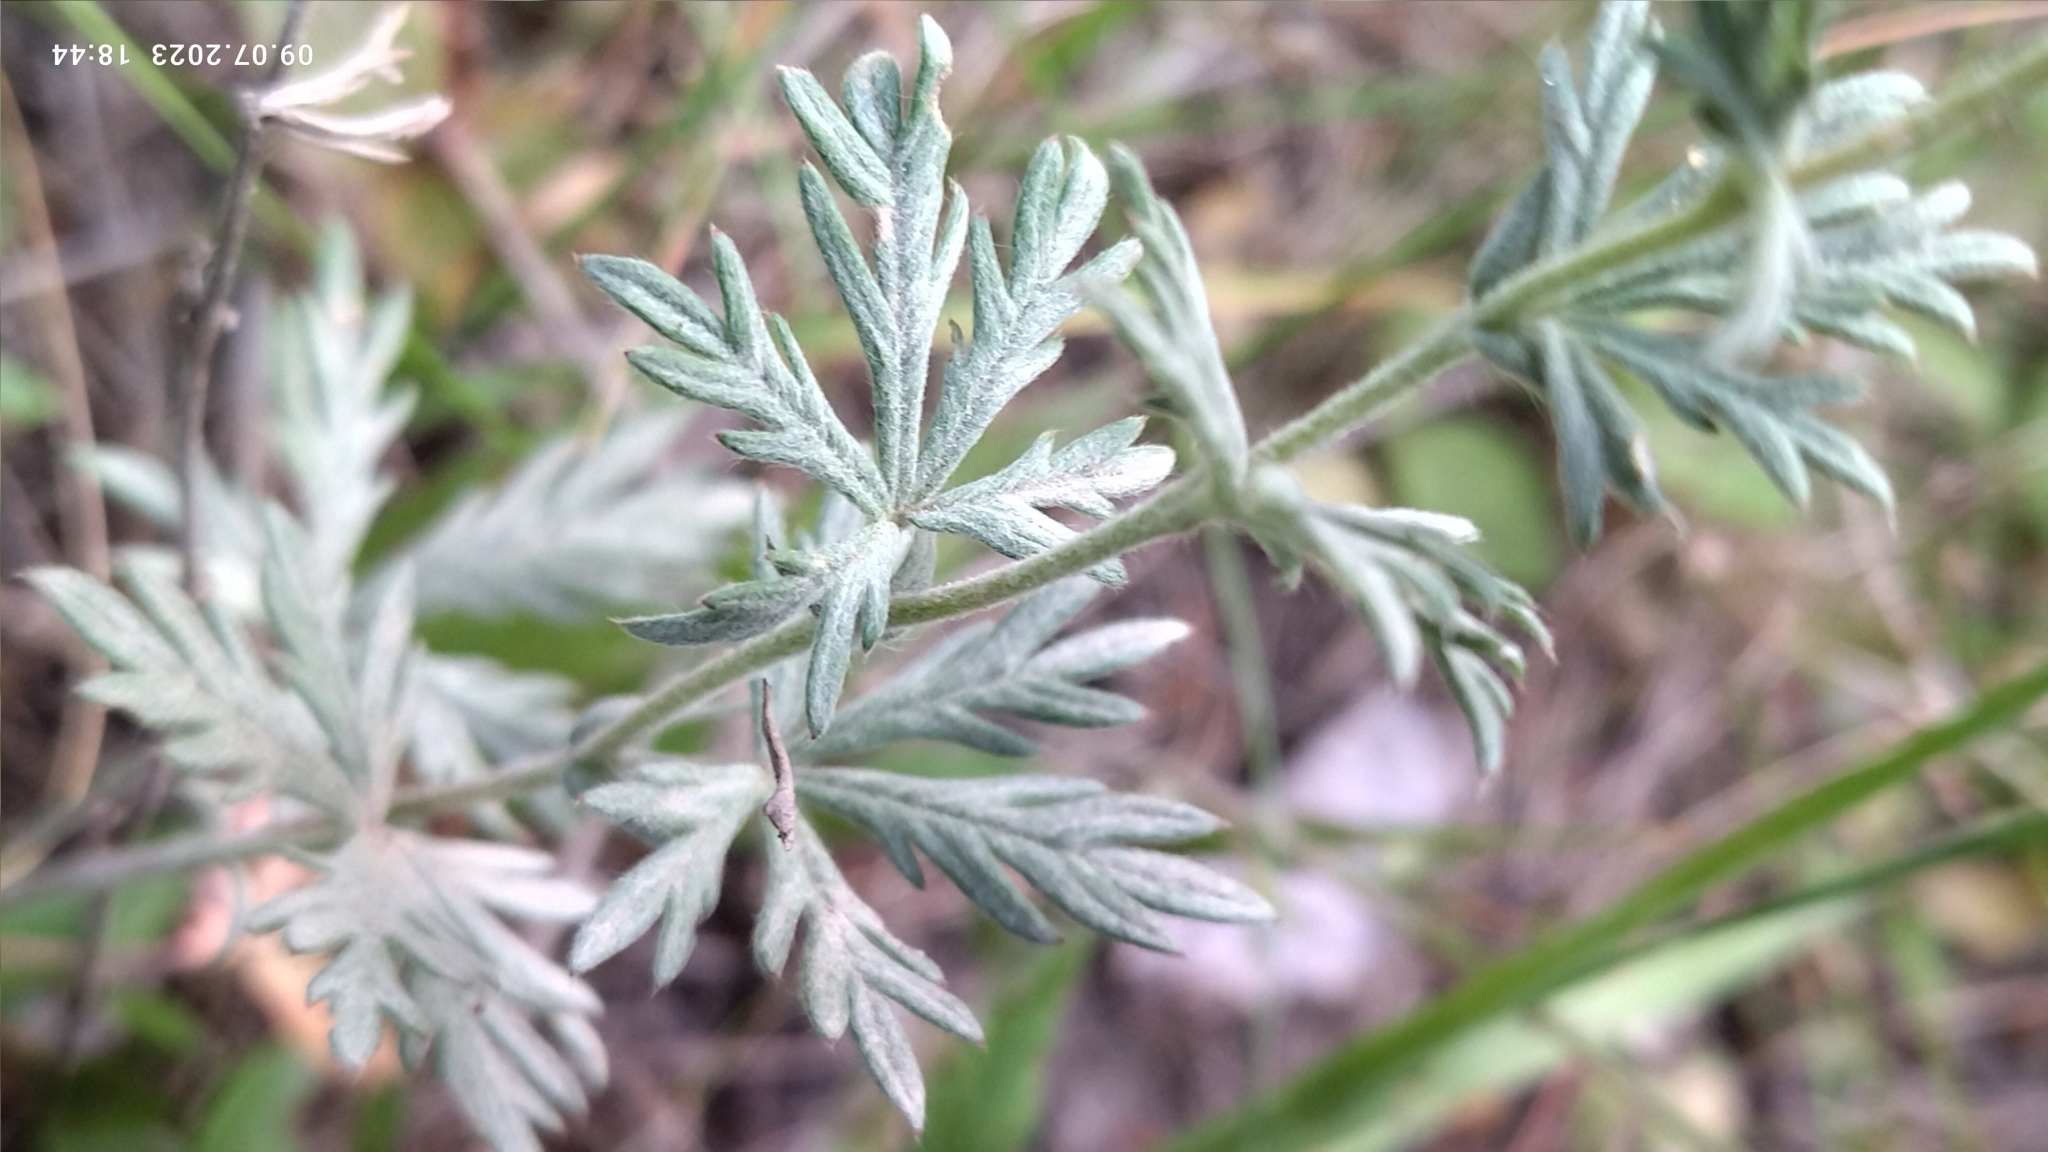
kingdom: Plantae
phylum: Tracheophyta
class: Magnoliopsida
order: Rosales
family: Rosaceae
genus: Potentilla
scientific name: Potentilla argentea
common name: Hoary cinquefoil
